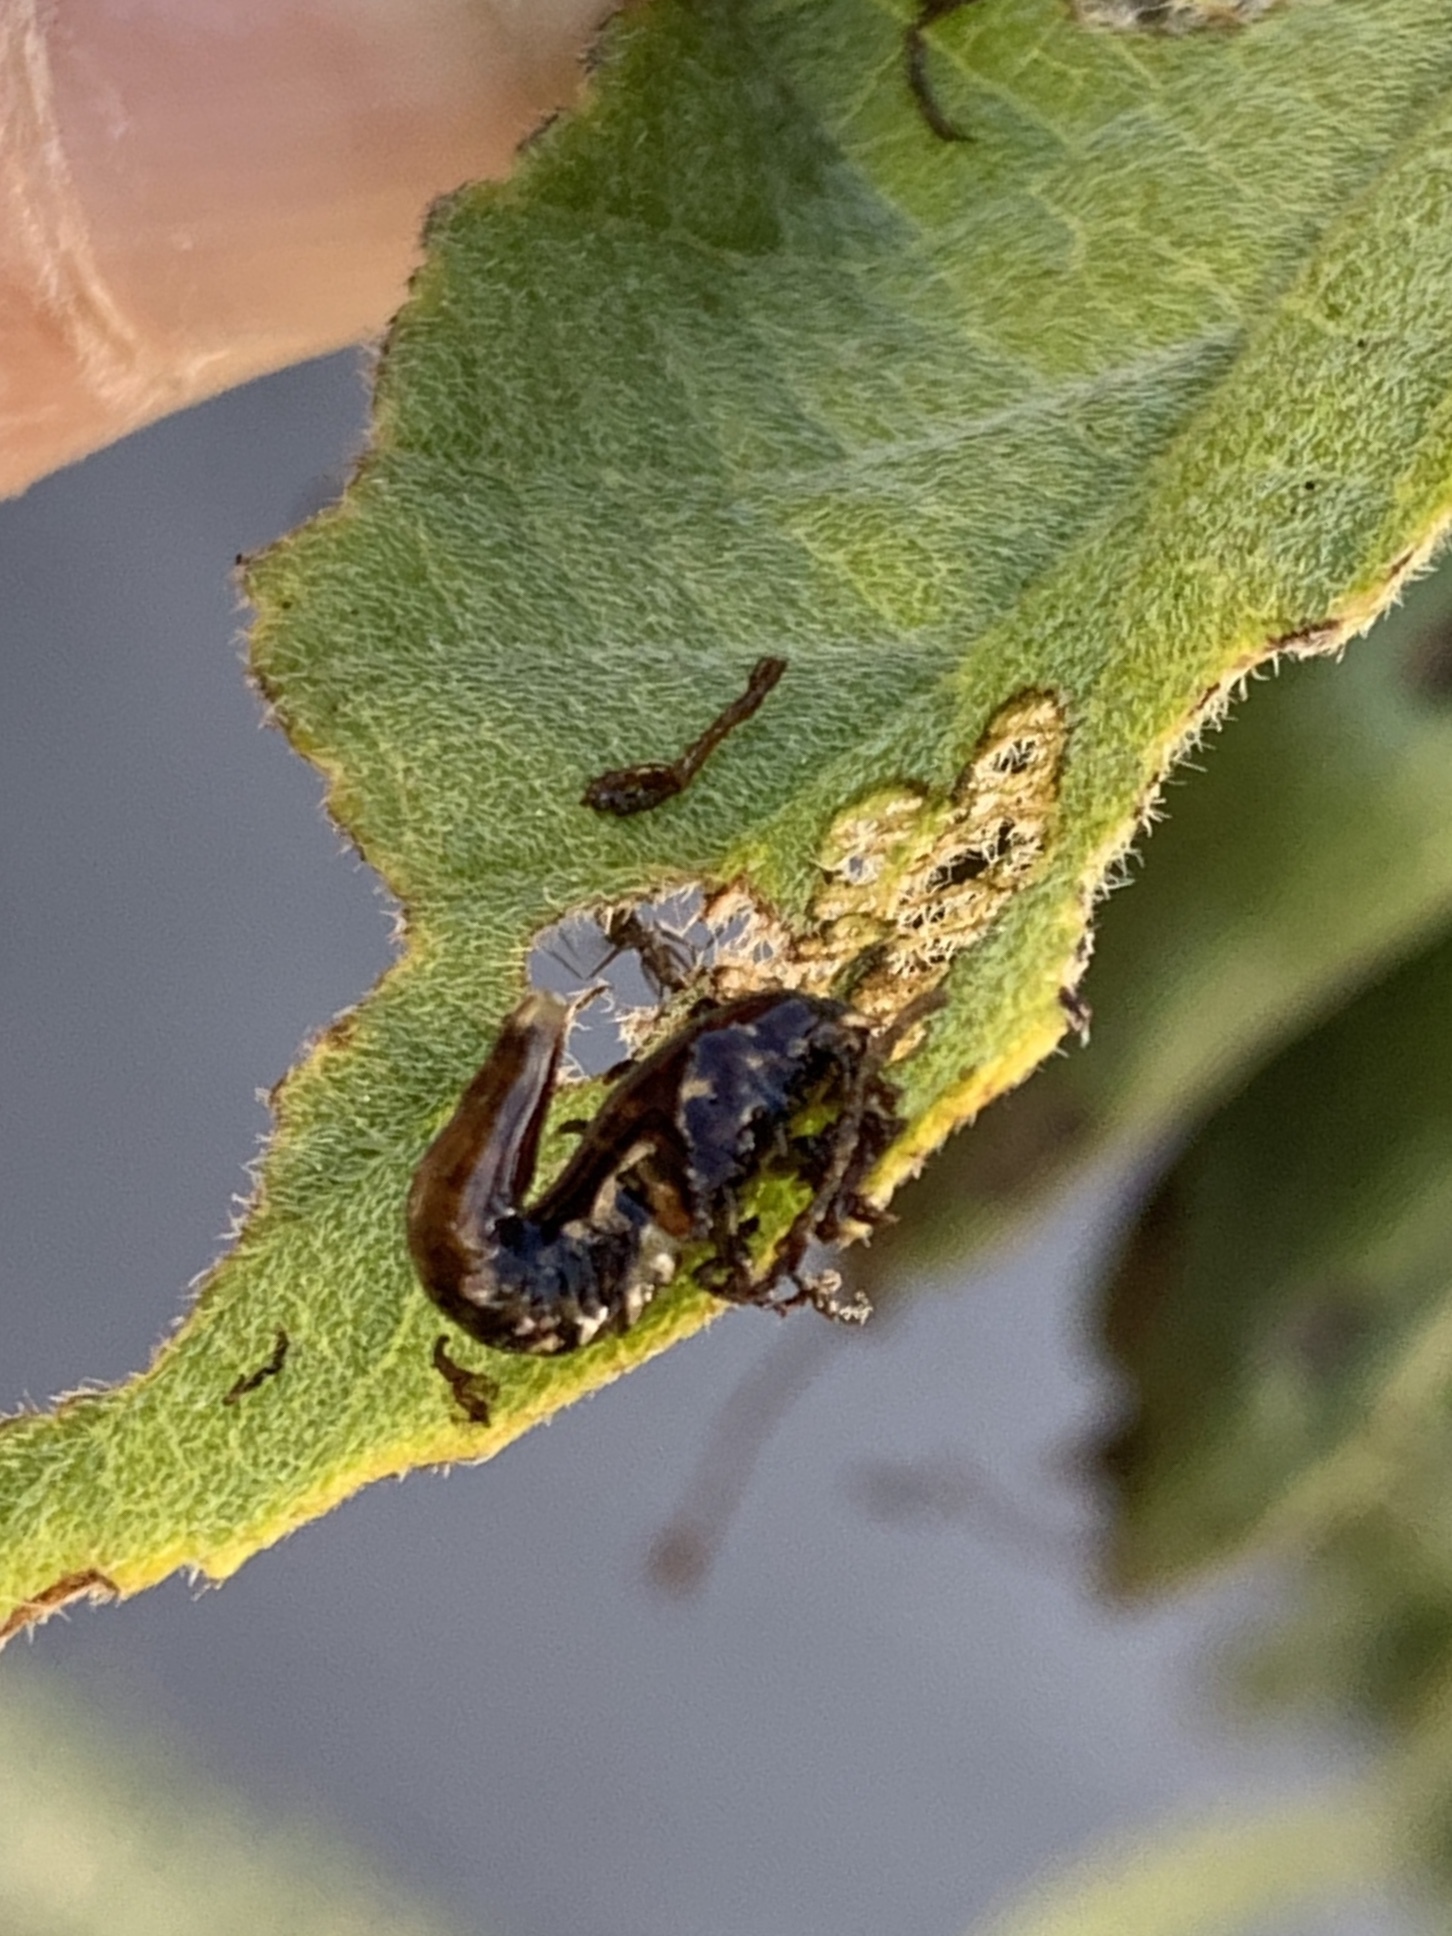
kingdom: Animalia
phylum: Arthropoda
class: Insecta
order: Coleoptera
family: Chrysomelidae
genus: Eurypepla
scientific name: Eurypepla calochroma
